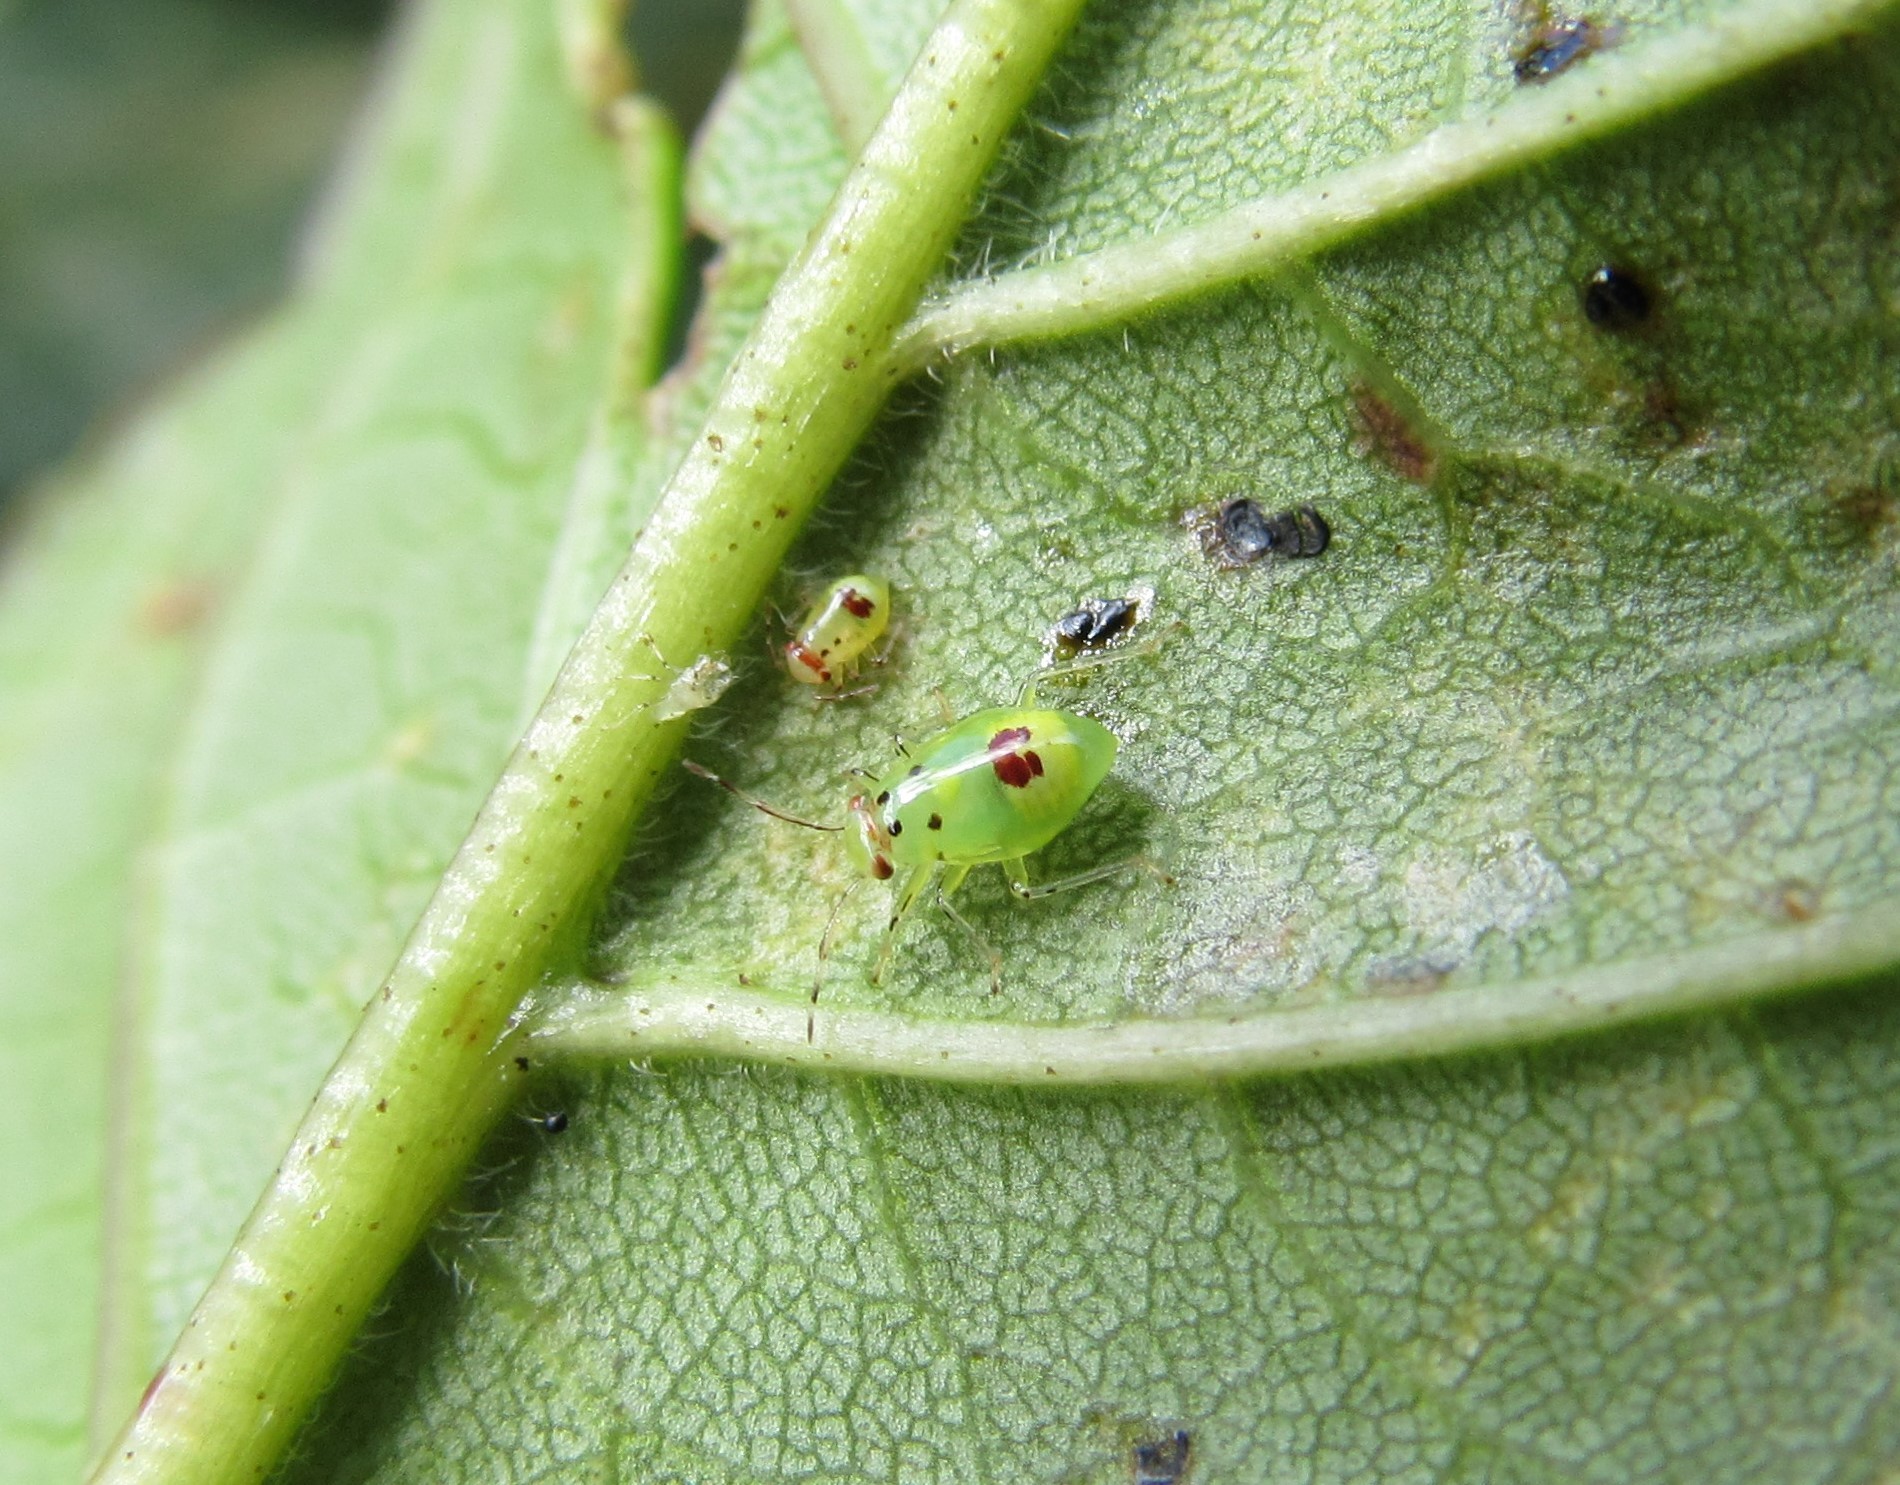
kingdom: Animalia
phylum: Arthropoda
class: Insecta
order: Hemiptera
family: Miridae
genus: Tropidosteptes
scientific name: Tropidosteptes chapingoensis
